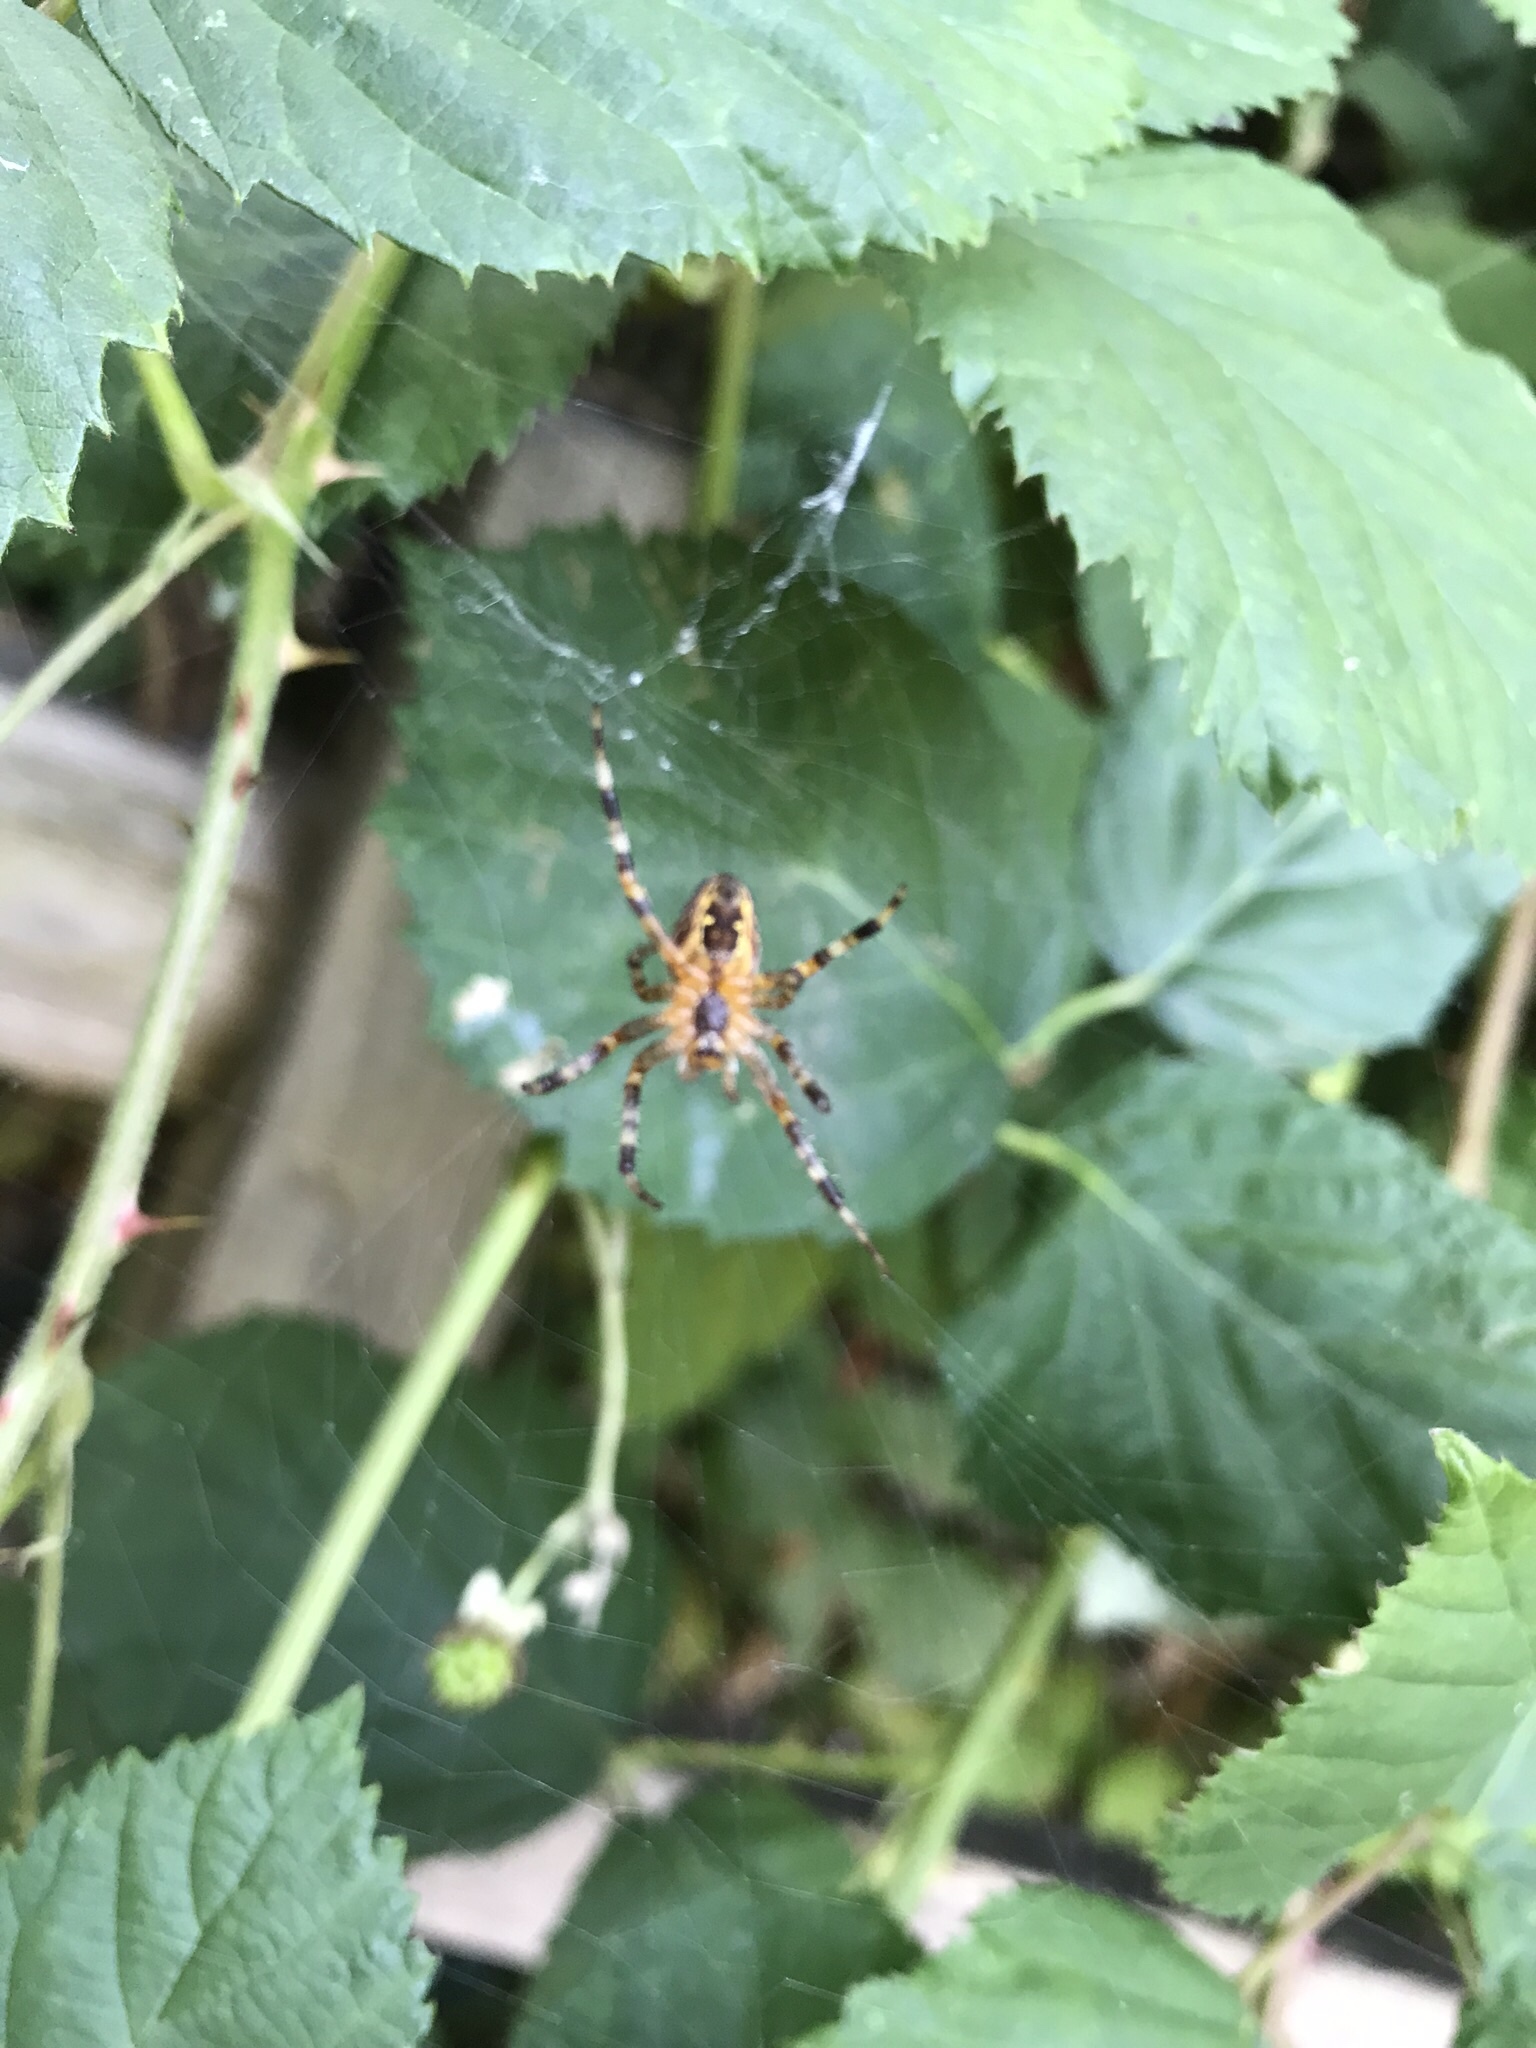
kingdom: Animalia
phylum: Arthropoda
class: Arachnida
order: Araneae
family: Araneidae
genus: Araneus
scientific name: Araneus diadematus
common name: Cross orbweaver
